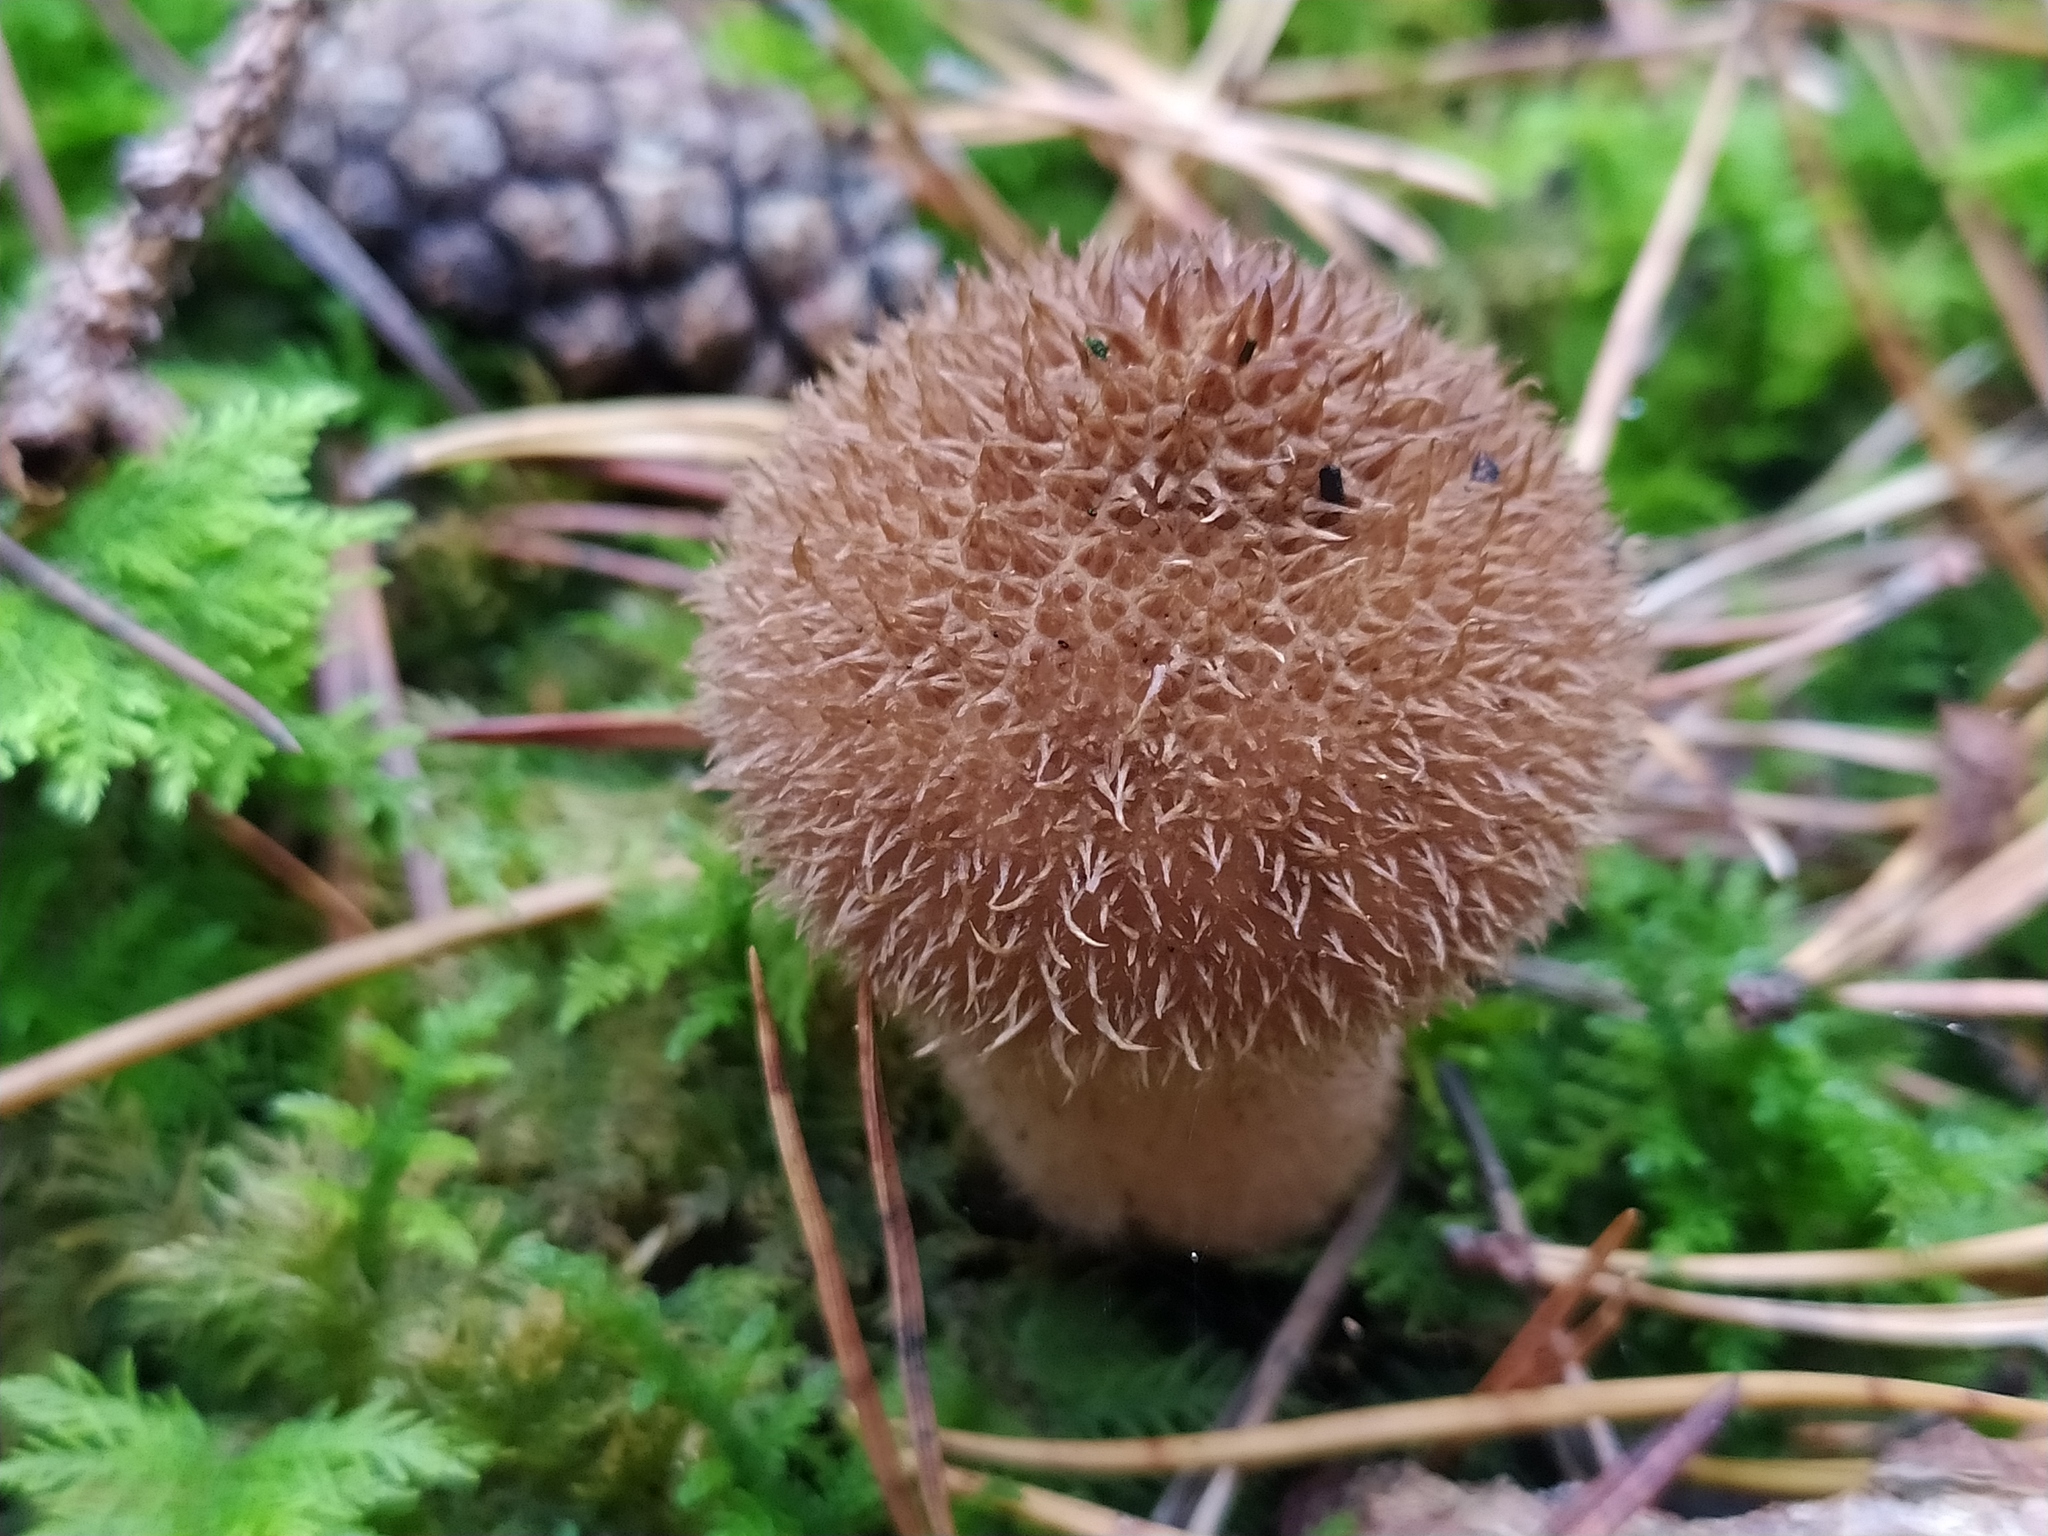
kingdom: Fungi
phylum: Basidiomycota
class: Agaricomycetes
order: Agaricales
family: Lycoperdaceae
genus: Lycoperdon
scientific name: Lycoperdon echinatum
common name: Hedgehog puffball
